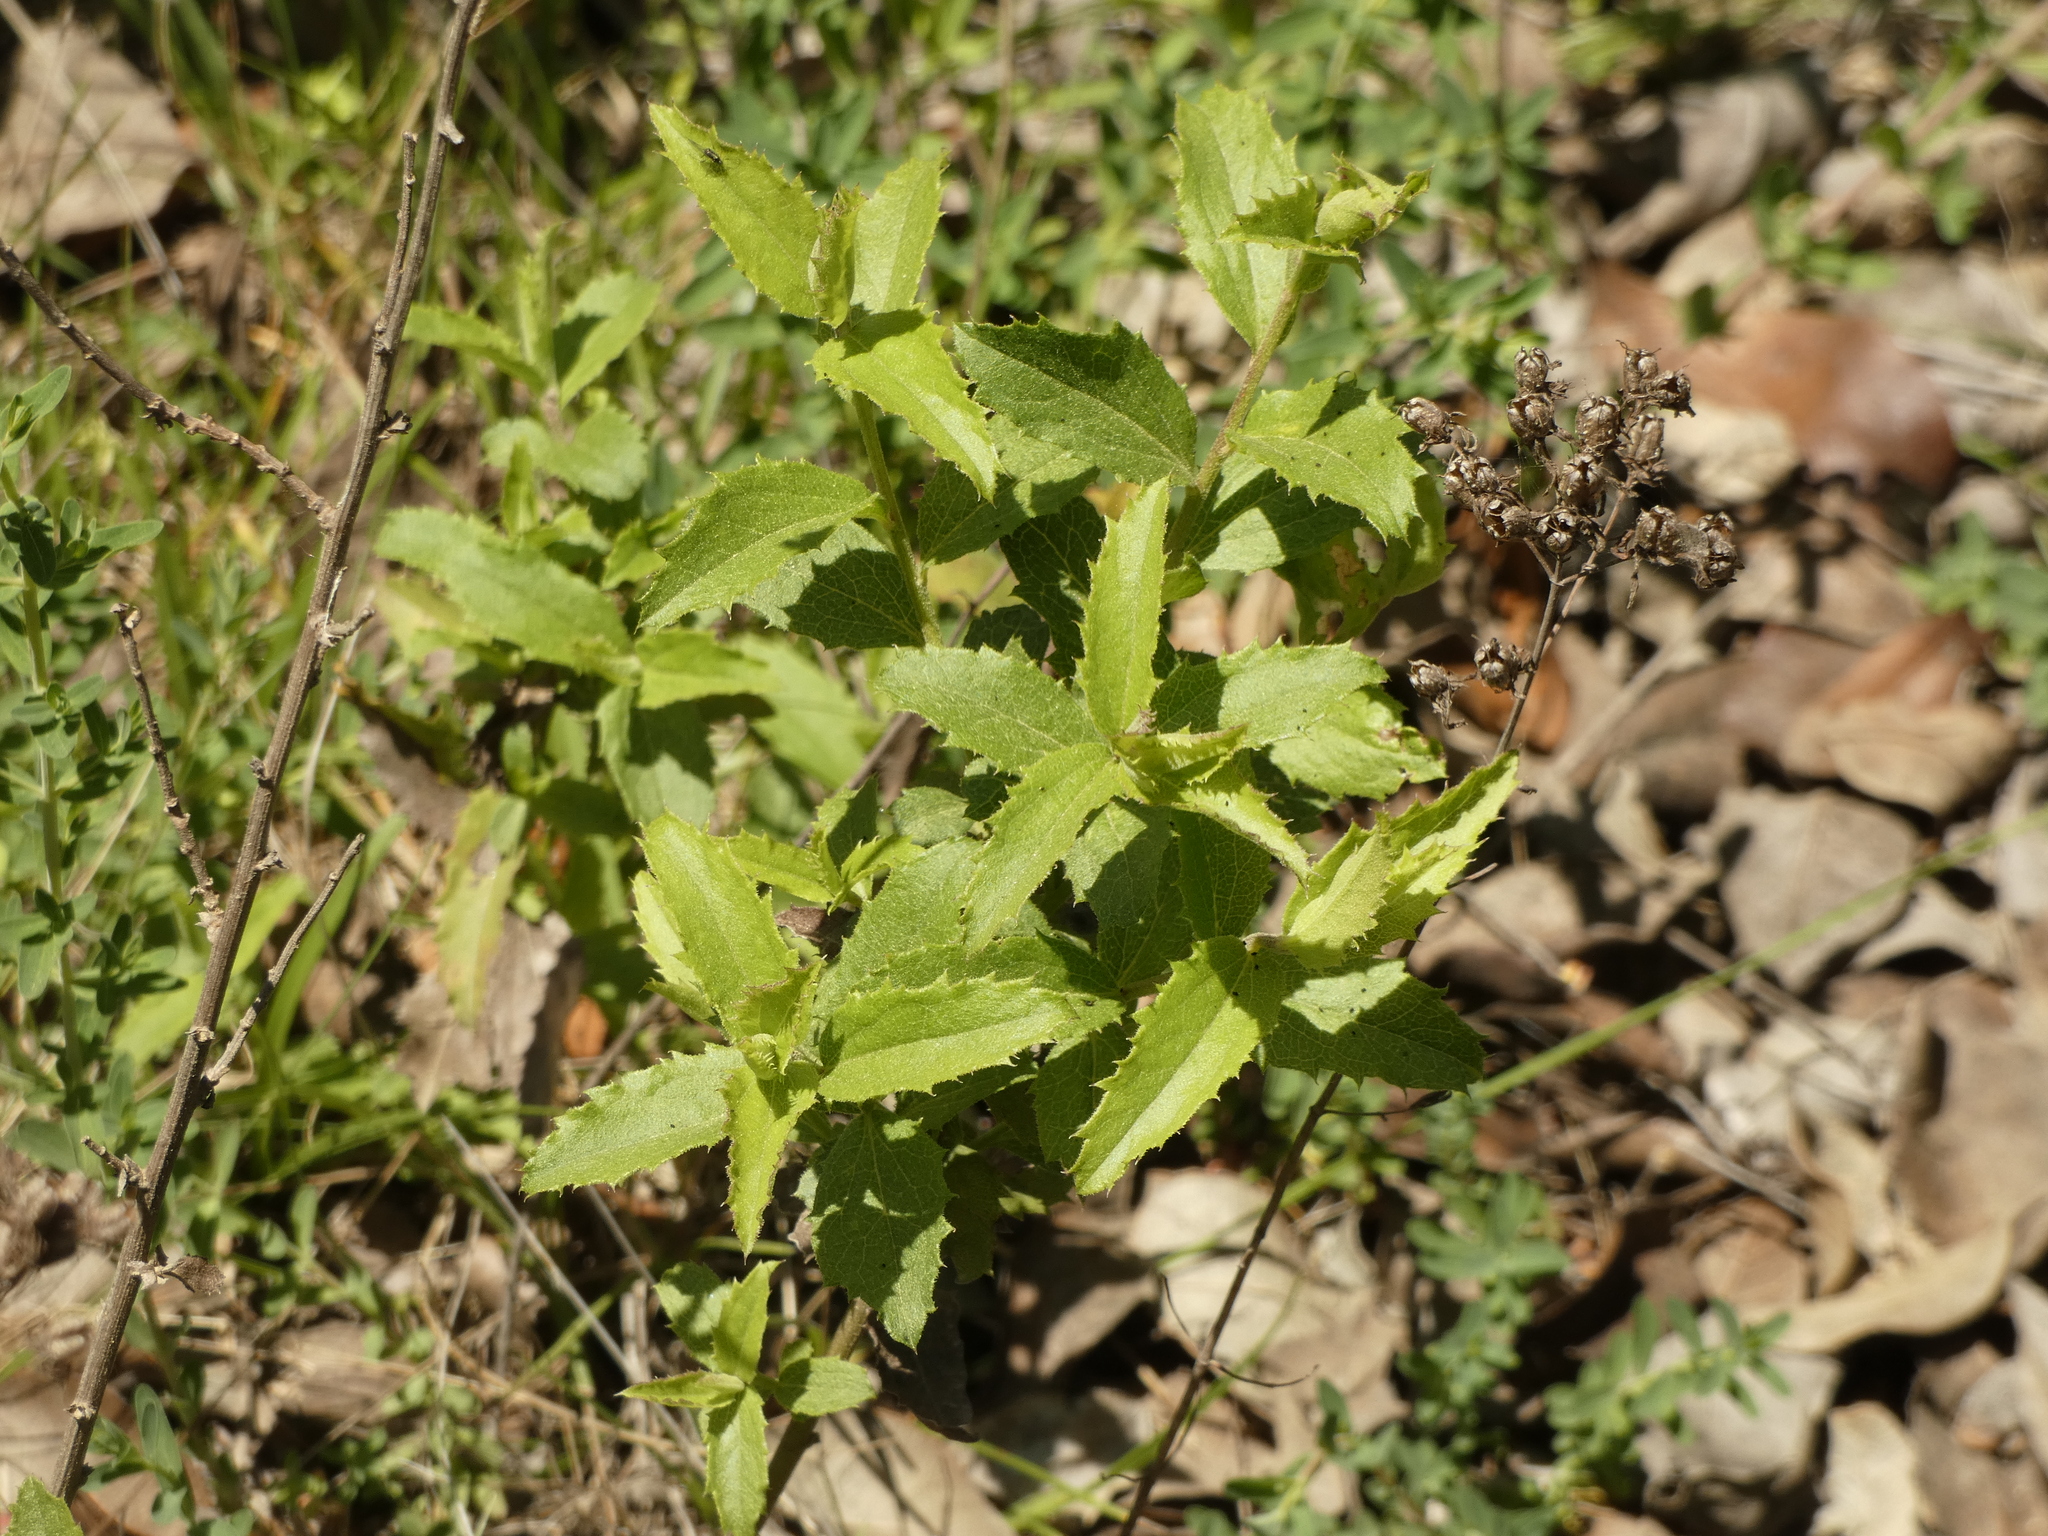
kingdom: Plantae
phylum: Tracheophyta
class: Magnoliopsida
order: Asterales
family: Asteraceae
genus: Baccharis
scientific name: Baccharis racemosa
